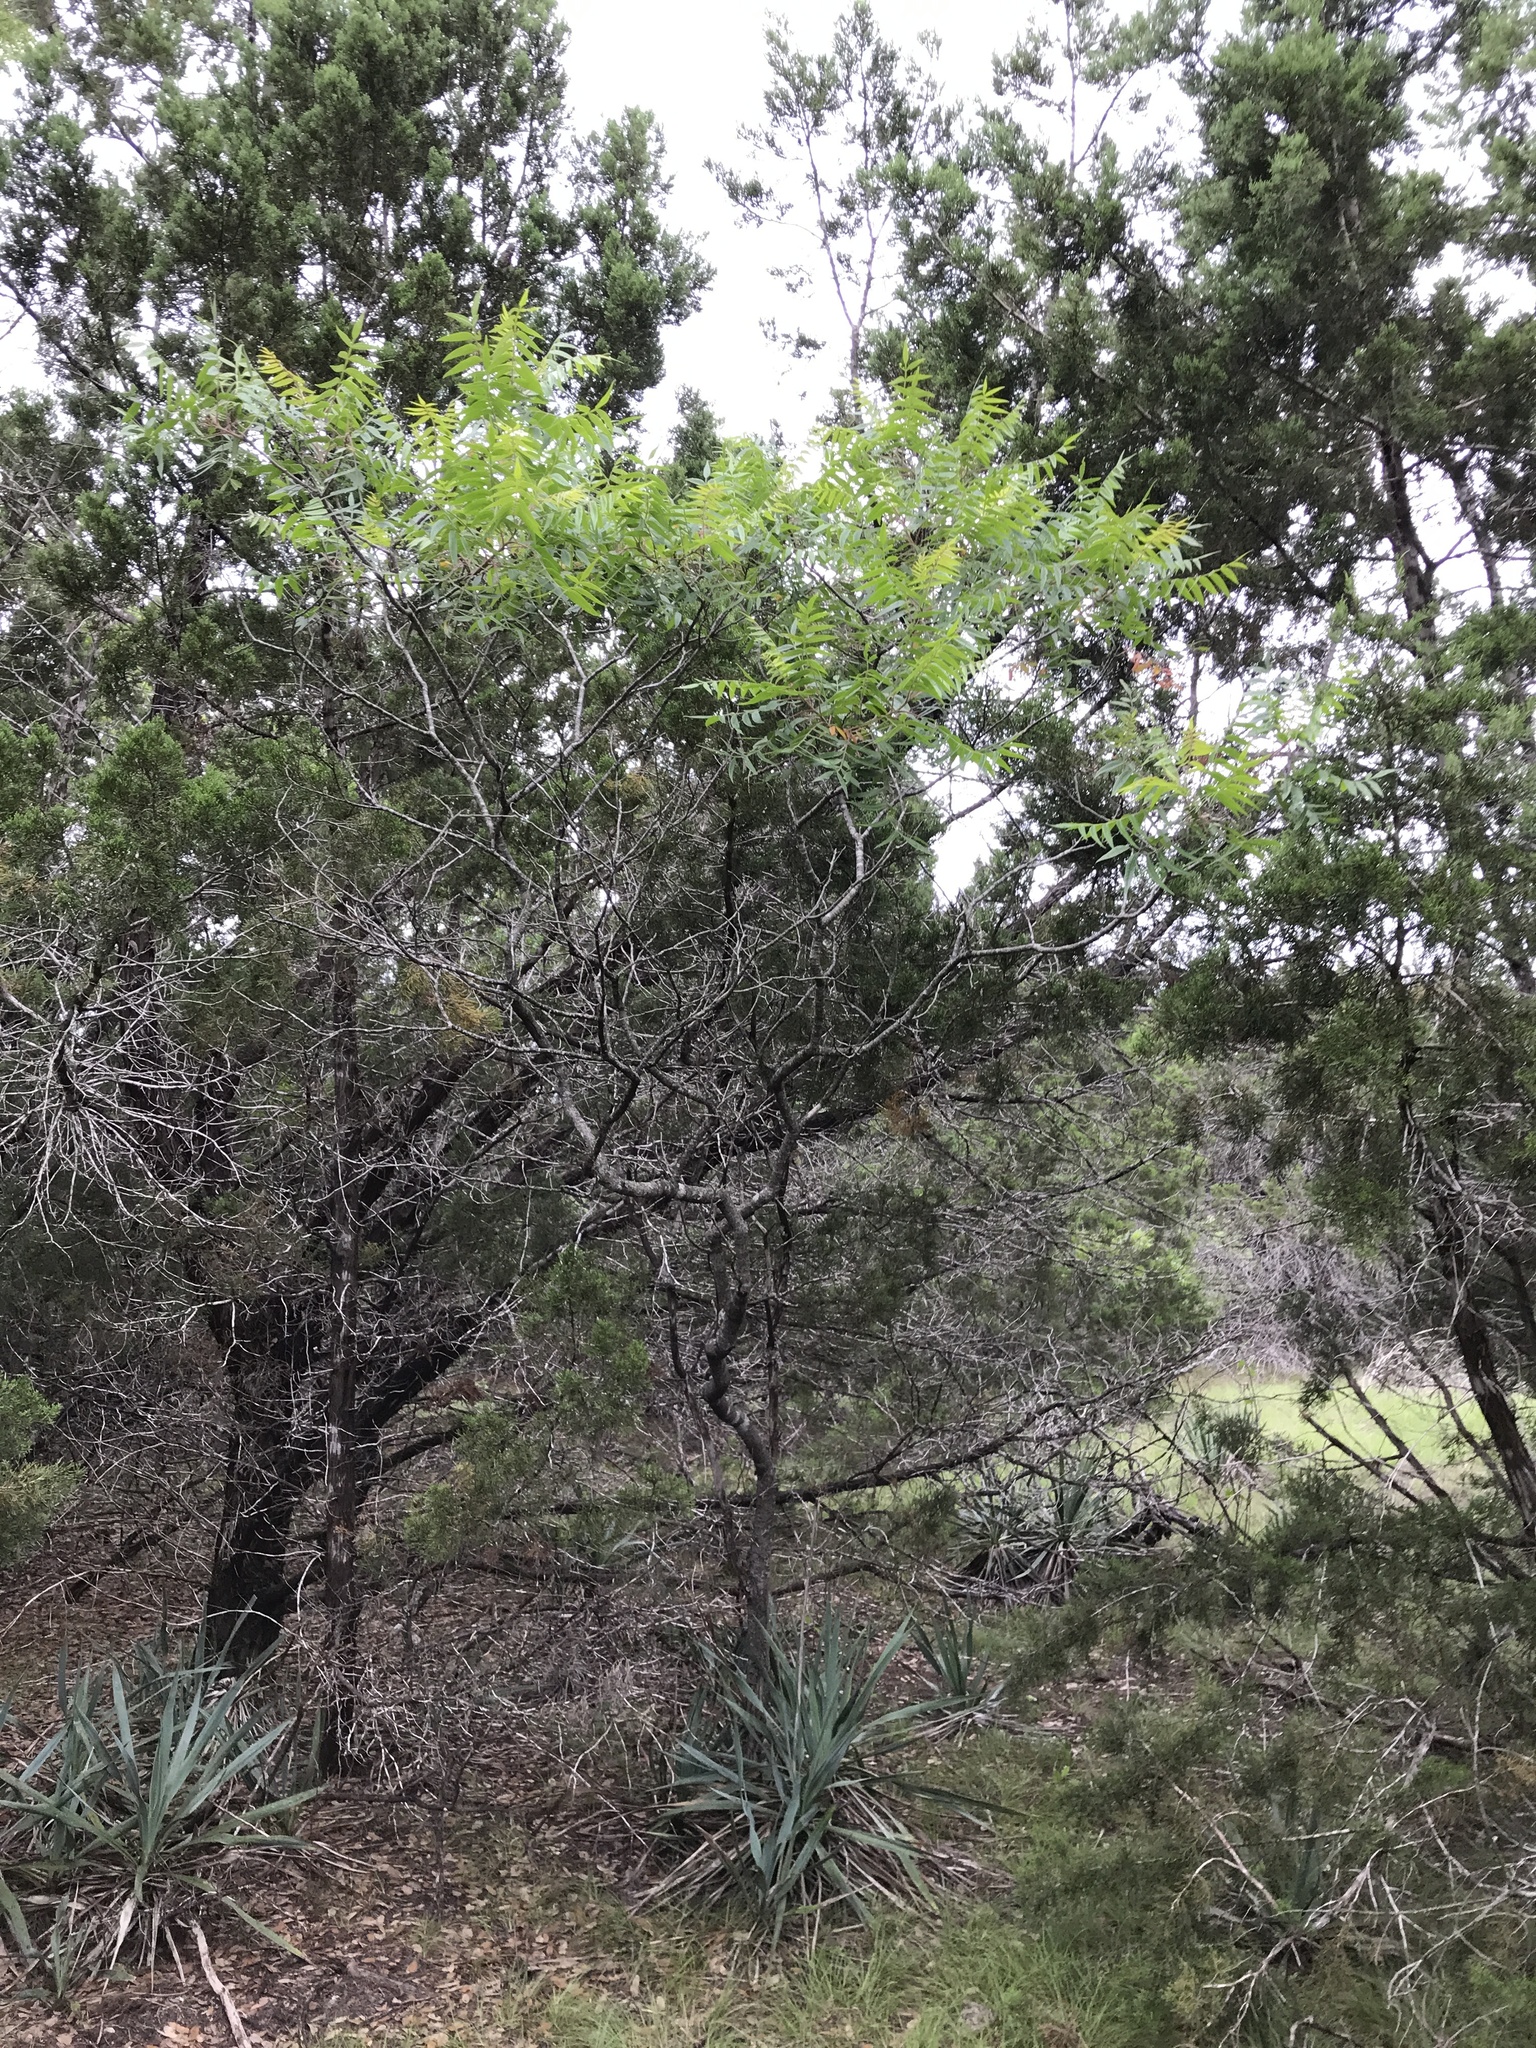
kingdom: Plantae
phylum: Tracheophyta
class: Magnoliopsida
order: Sapindales
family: Anacardiaceae
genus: Rhus
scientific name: Rhus lanceolata
